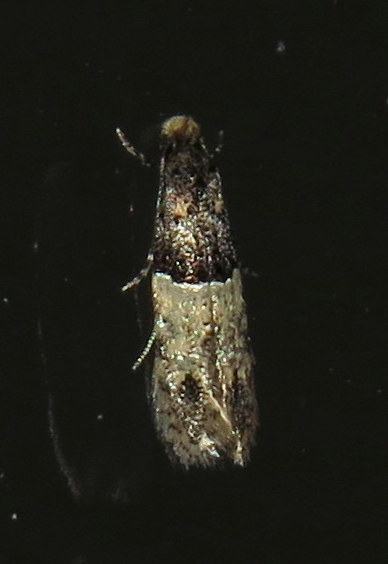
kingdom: Animalia
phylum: Arthropoda
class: Insecta
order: Lepidoptera
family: Meessiidae
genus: Oenoe
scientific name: Oenoe hybromella
